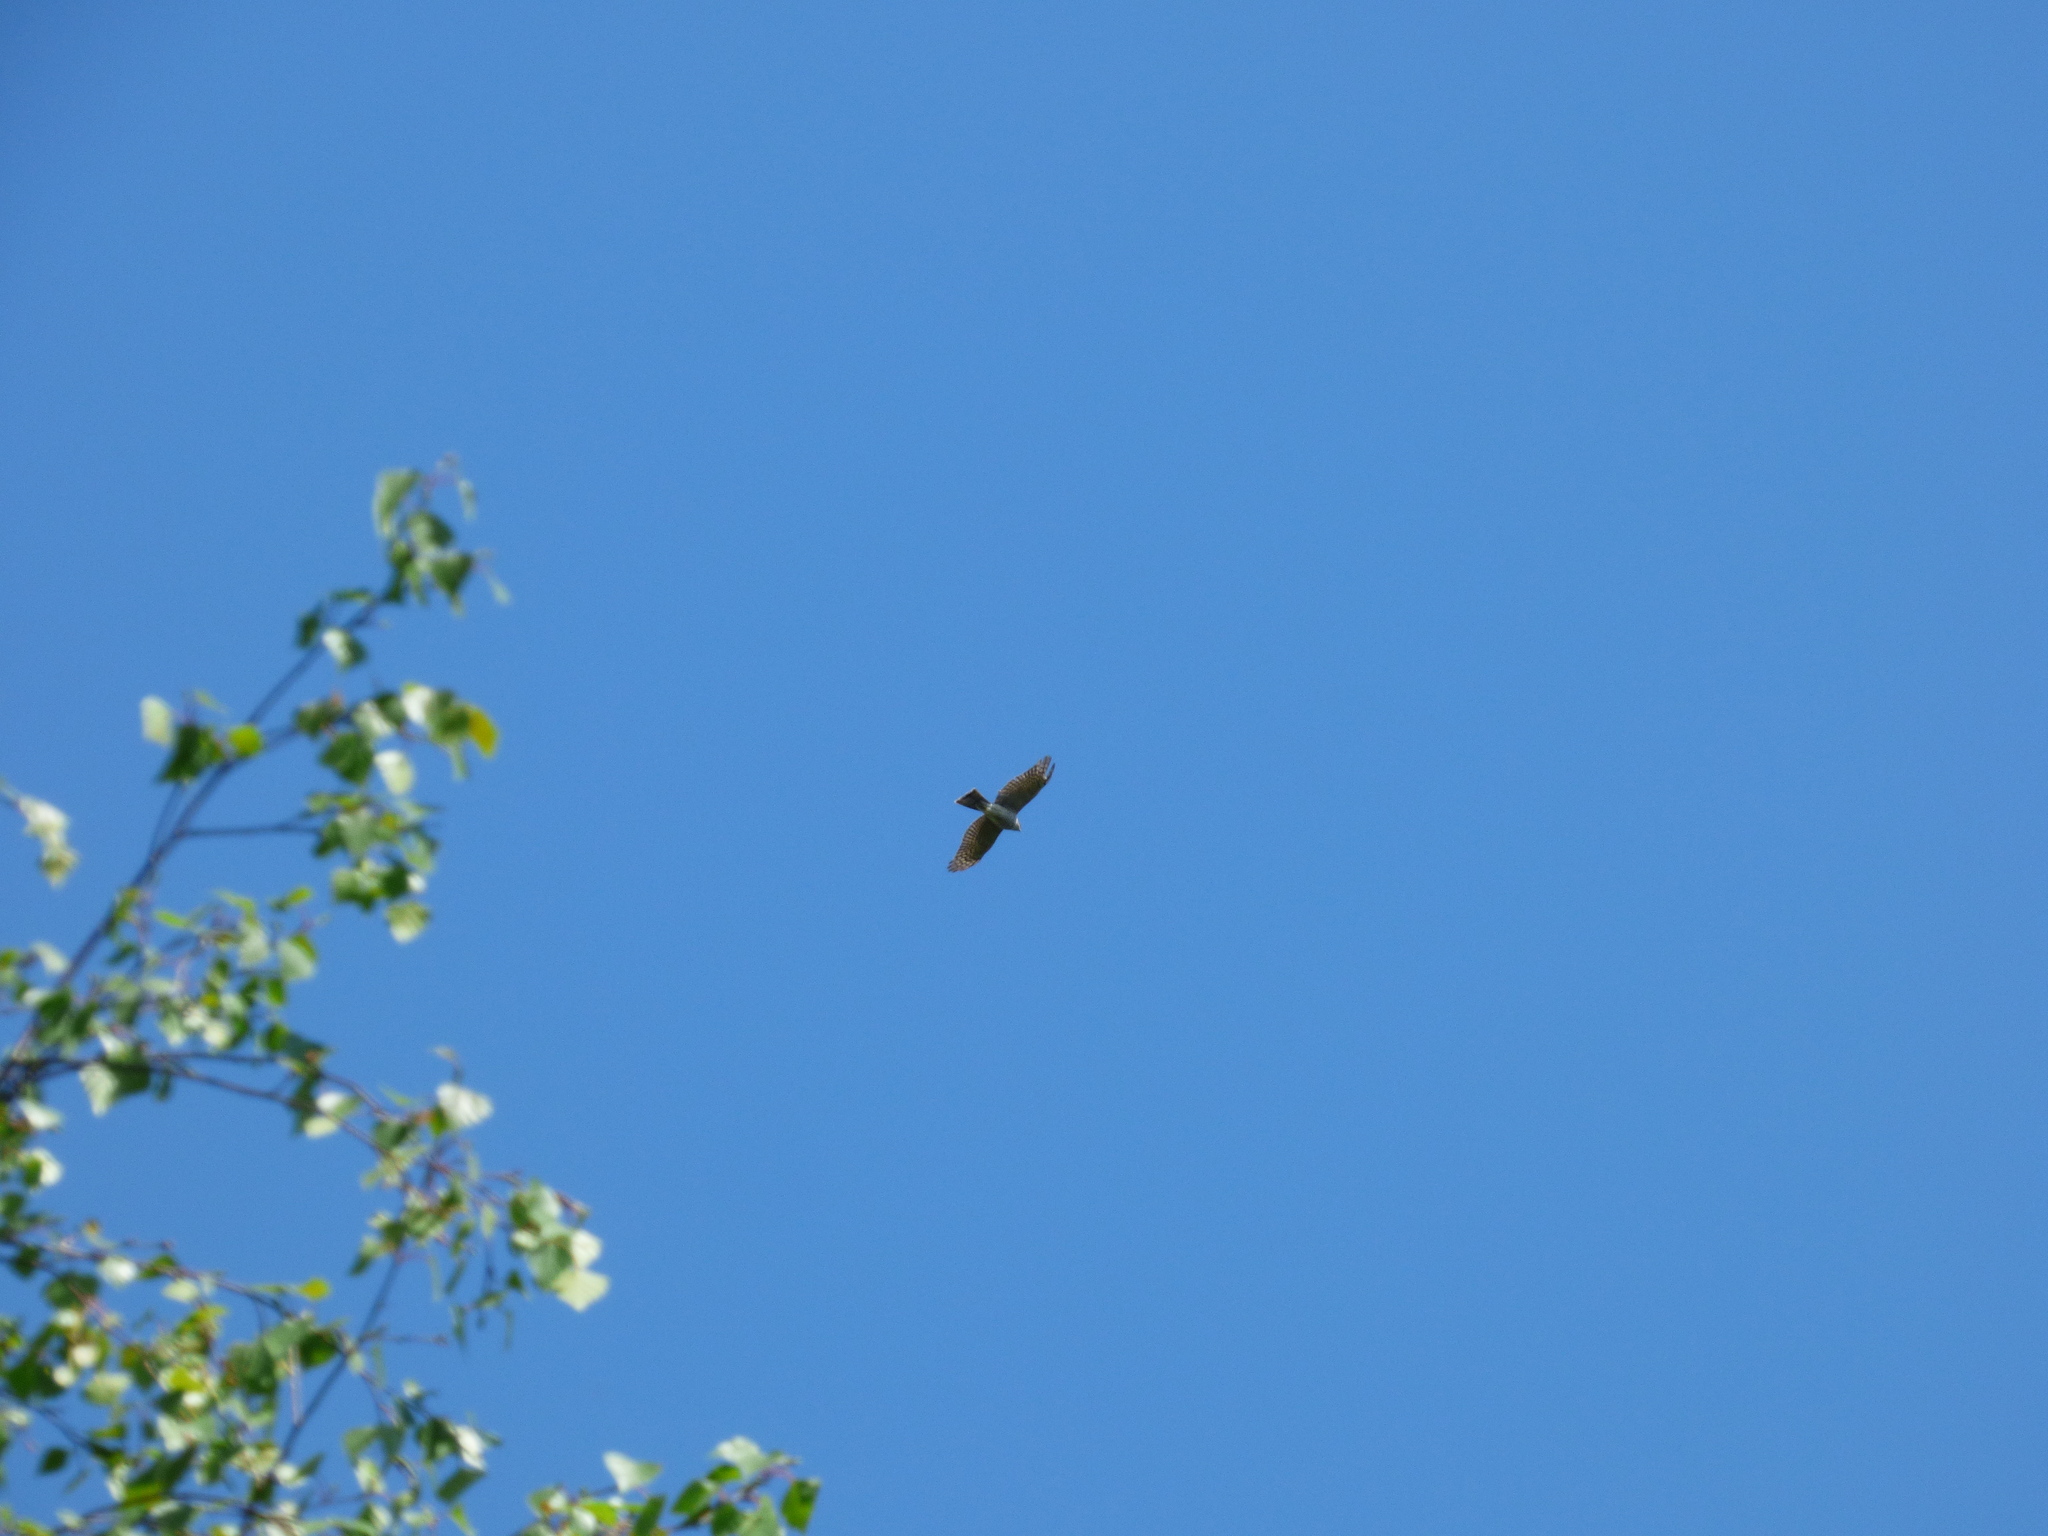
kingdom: Animalia
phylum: Chordata
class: Aves
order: Accipitriformes
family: Accipitridae
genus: Accipiter
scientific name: Accipiter nisus
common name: Eurasian sparrowhawk
